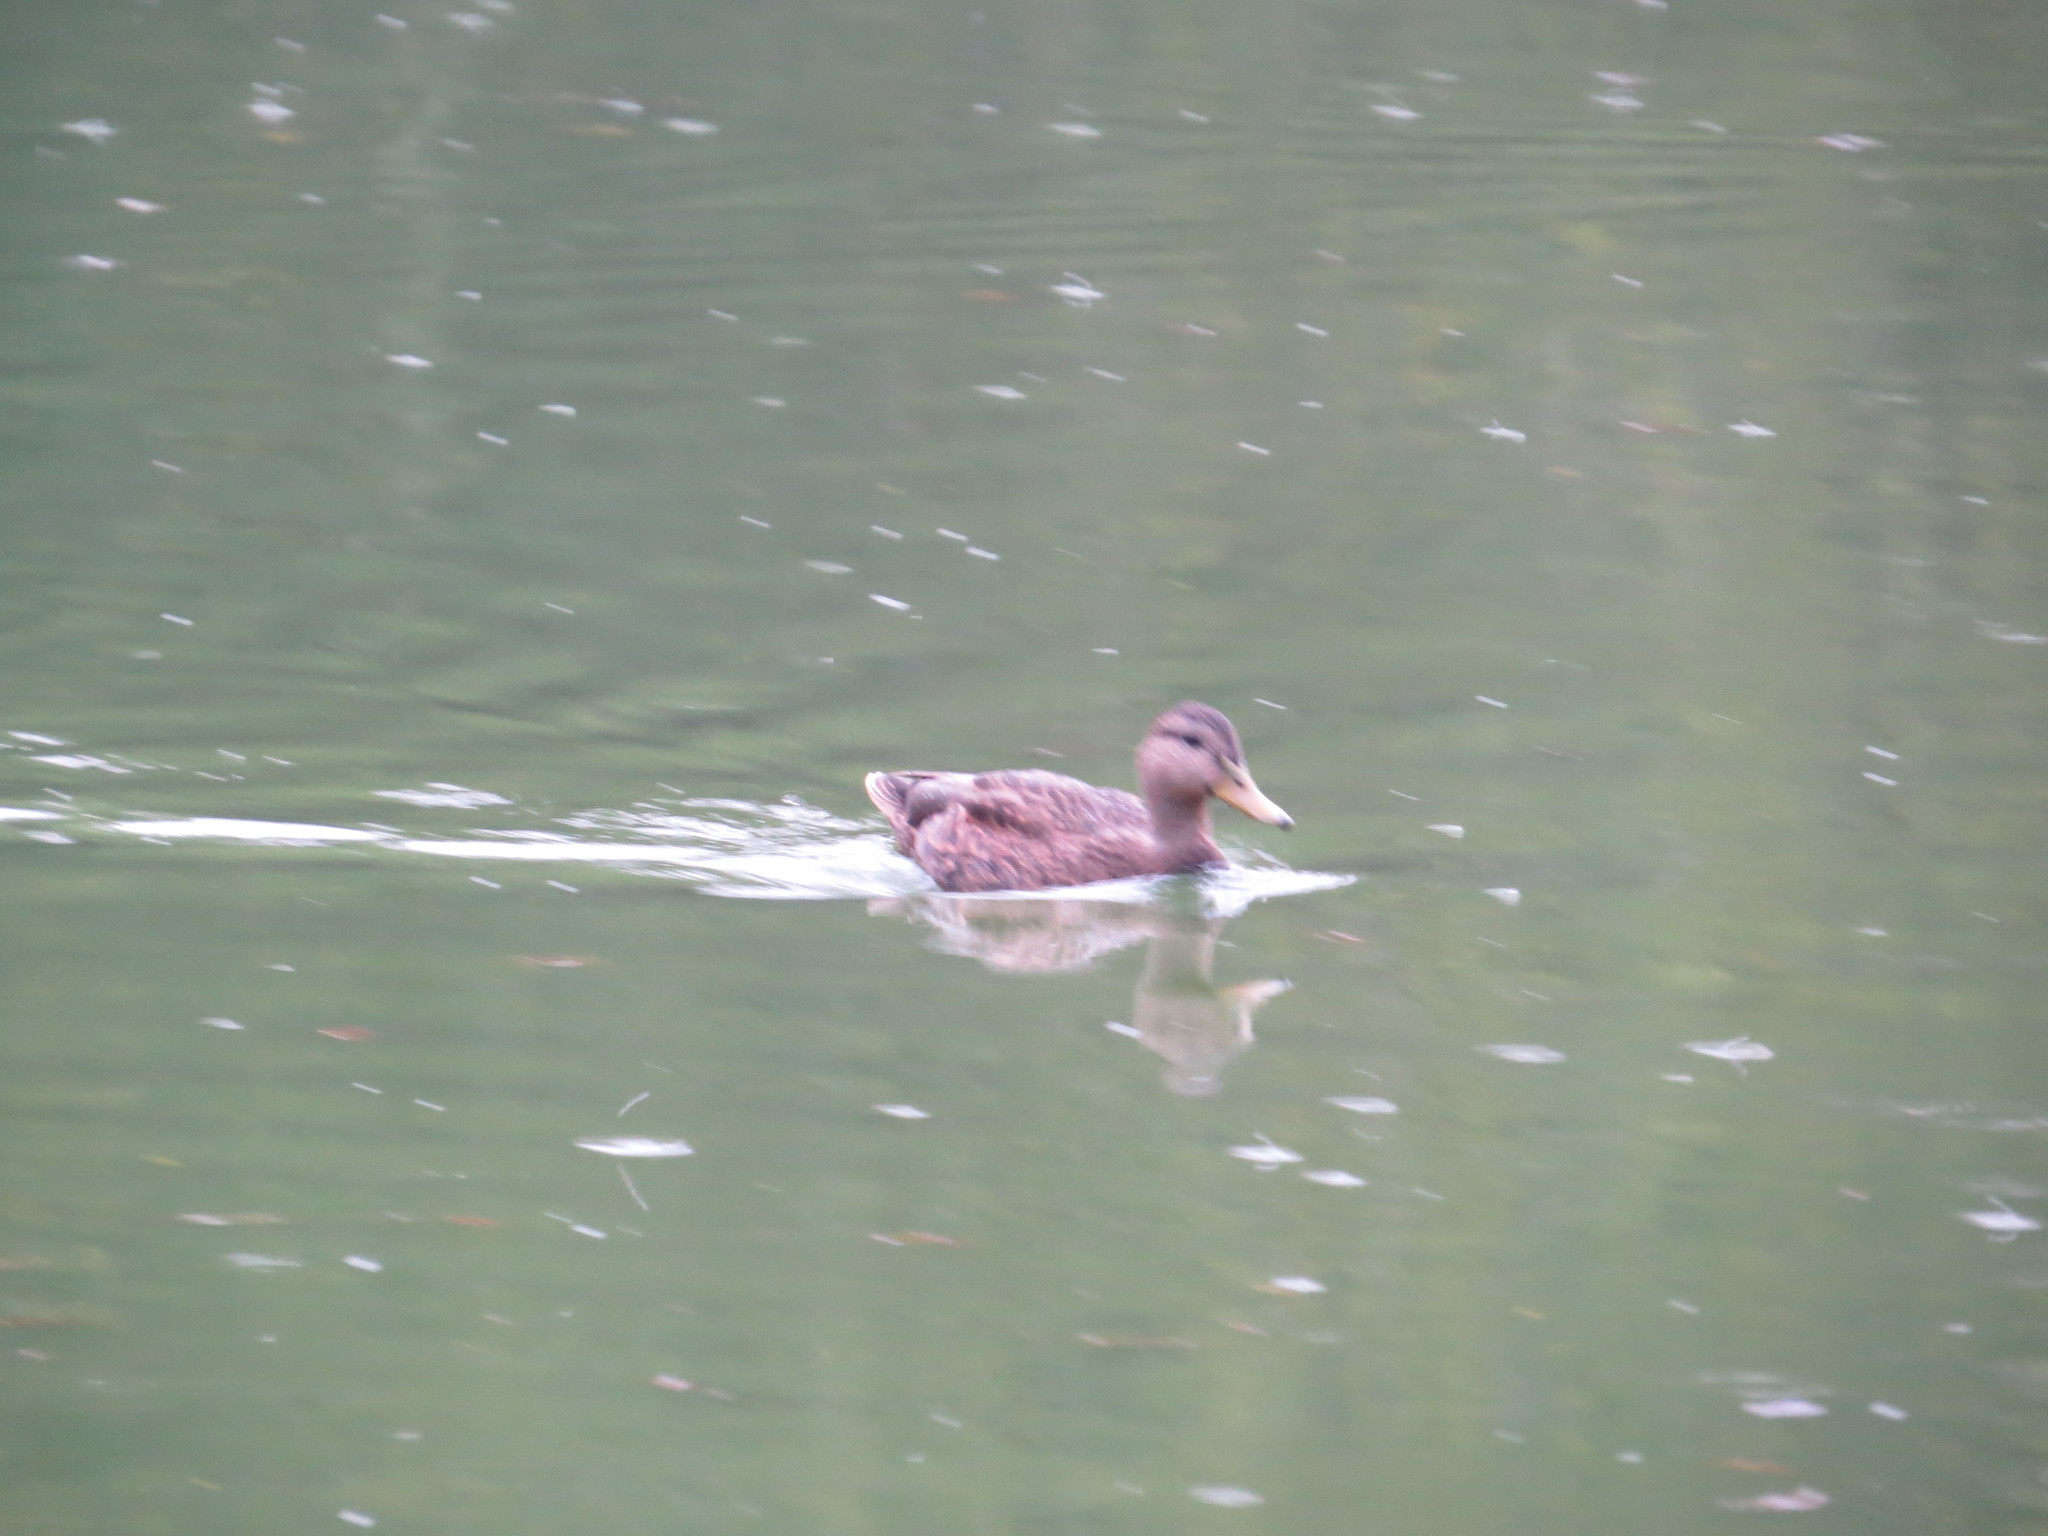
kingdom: Animalia
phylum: Chordata
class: Aves
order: Anseriformes
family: Anatidae
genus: Anas
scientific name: Anas diazi
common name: Mexican duck
